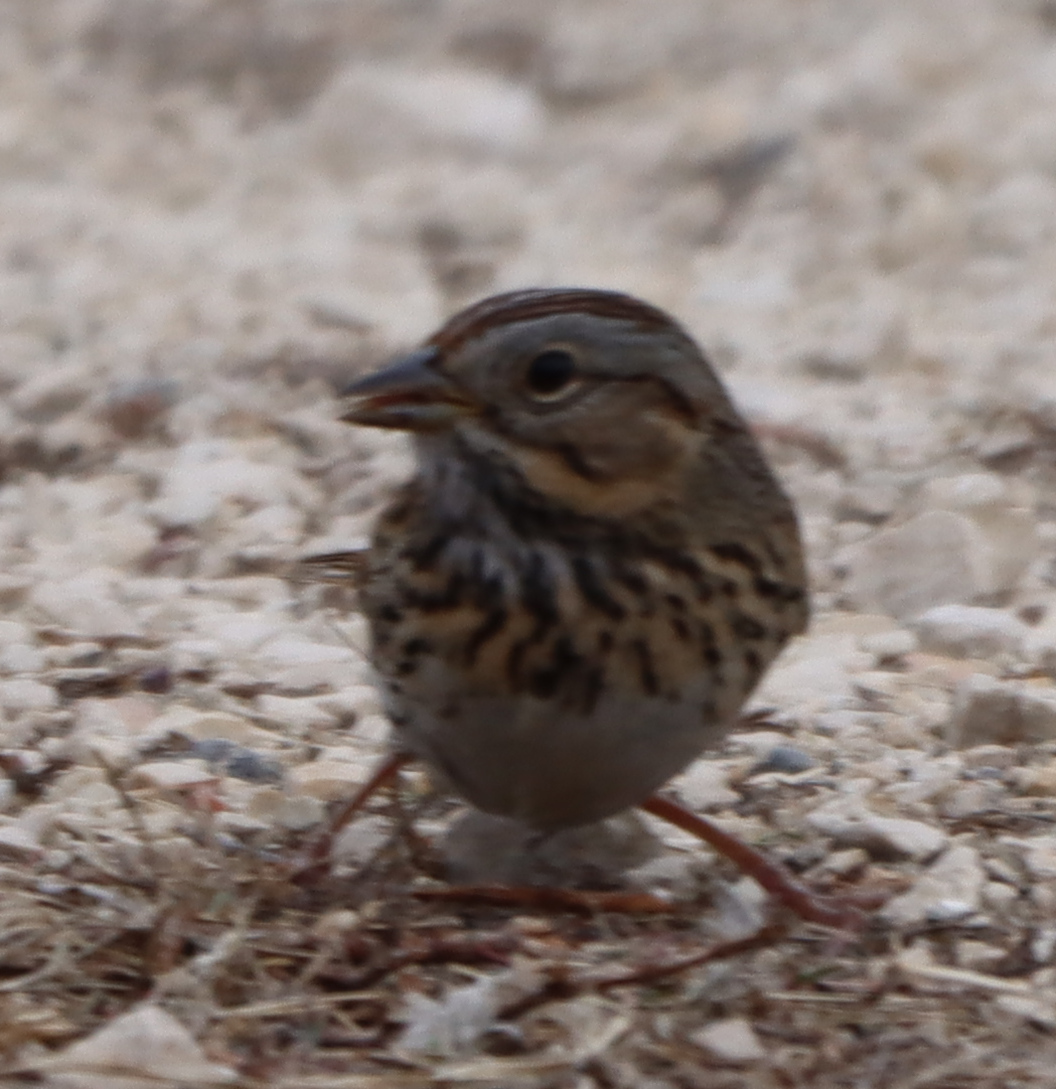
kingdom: Animalia
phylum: Chordata
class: Aves
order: Passeriformes
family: Passerellidae
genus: Melospiza
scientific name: Melospiza lincolnii
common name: Lincoln's sparrow
